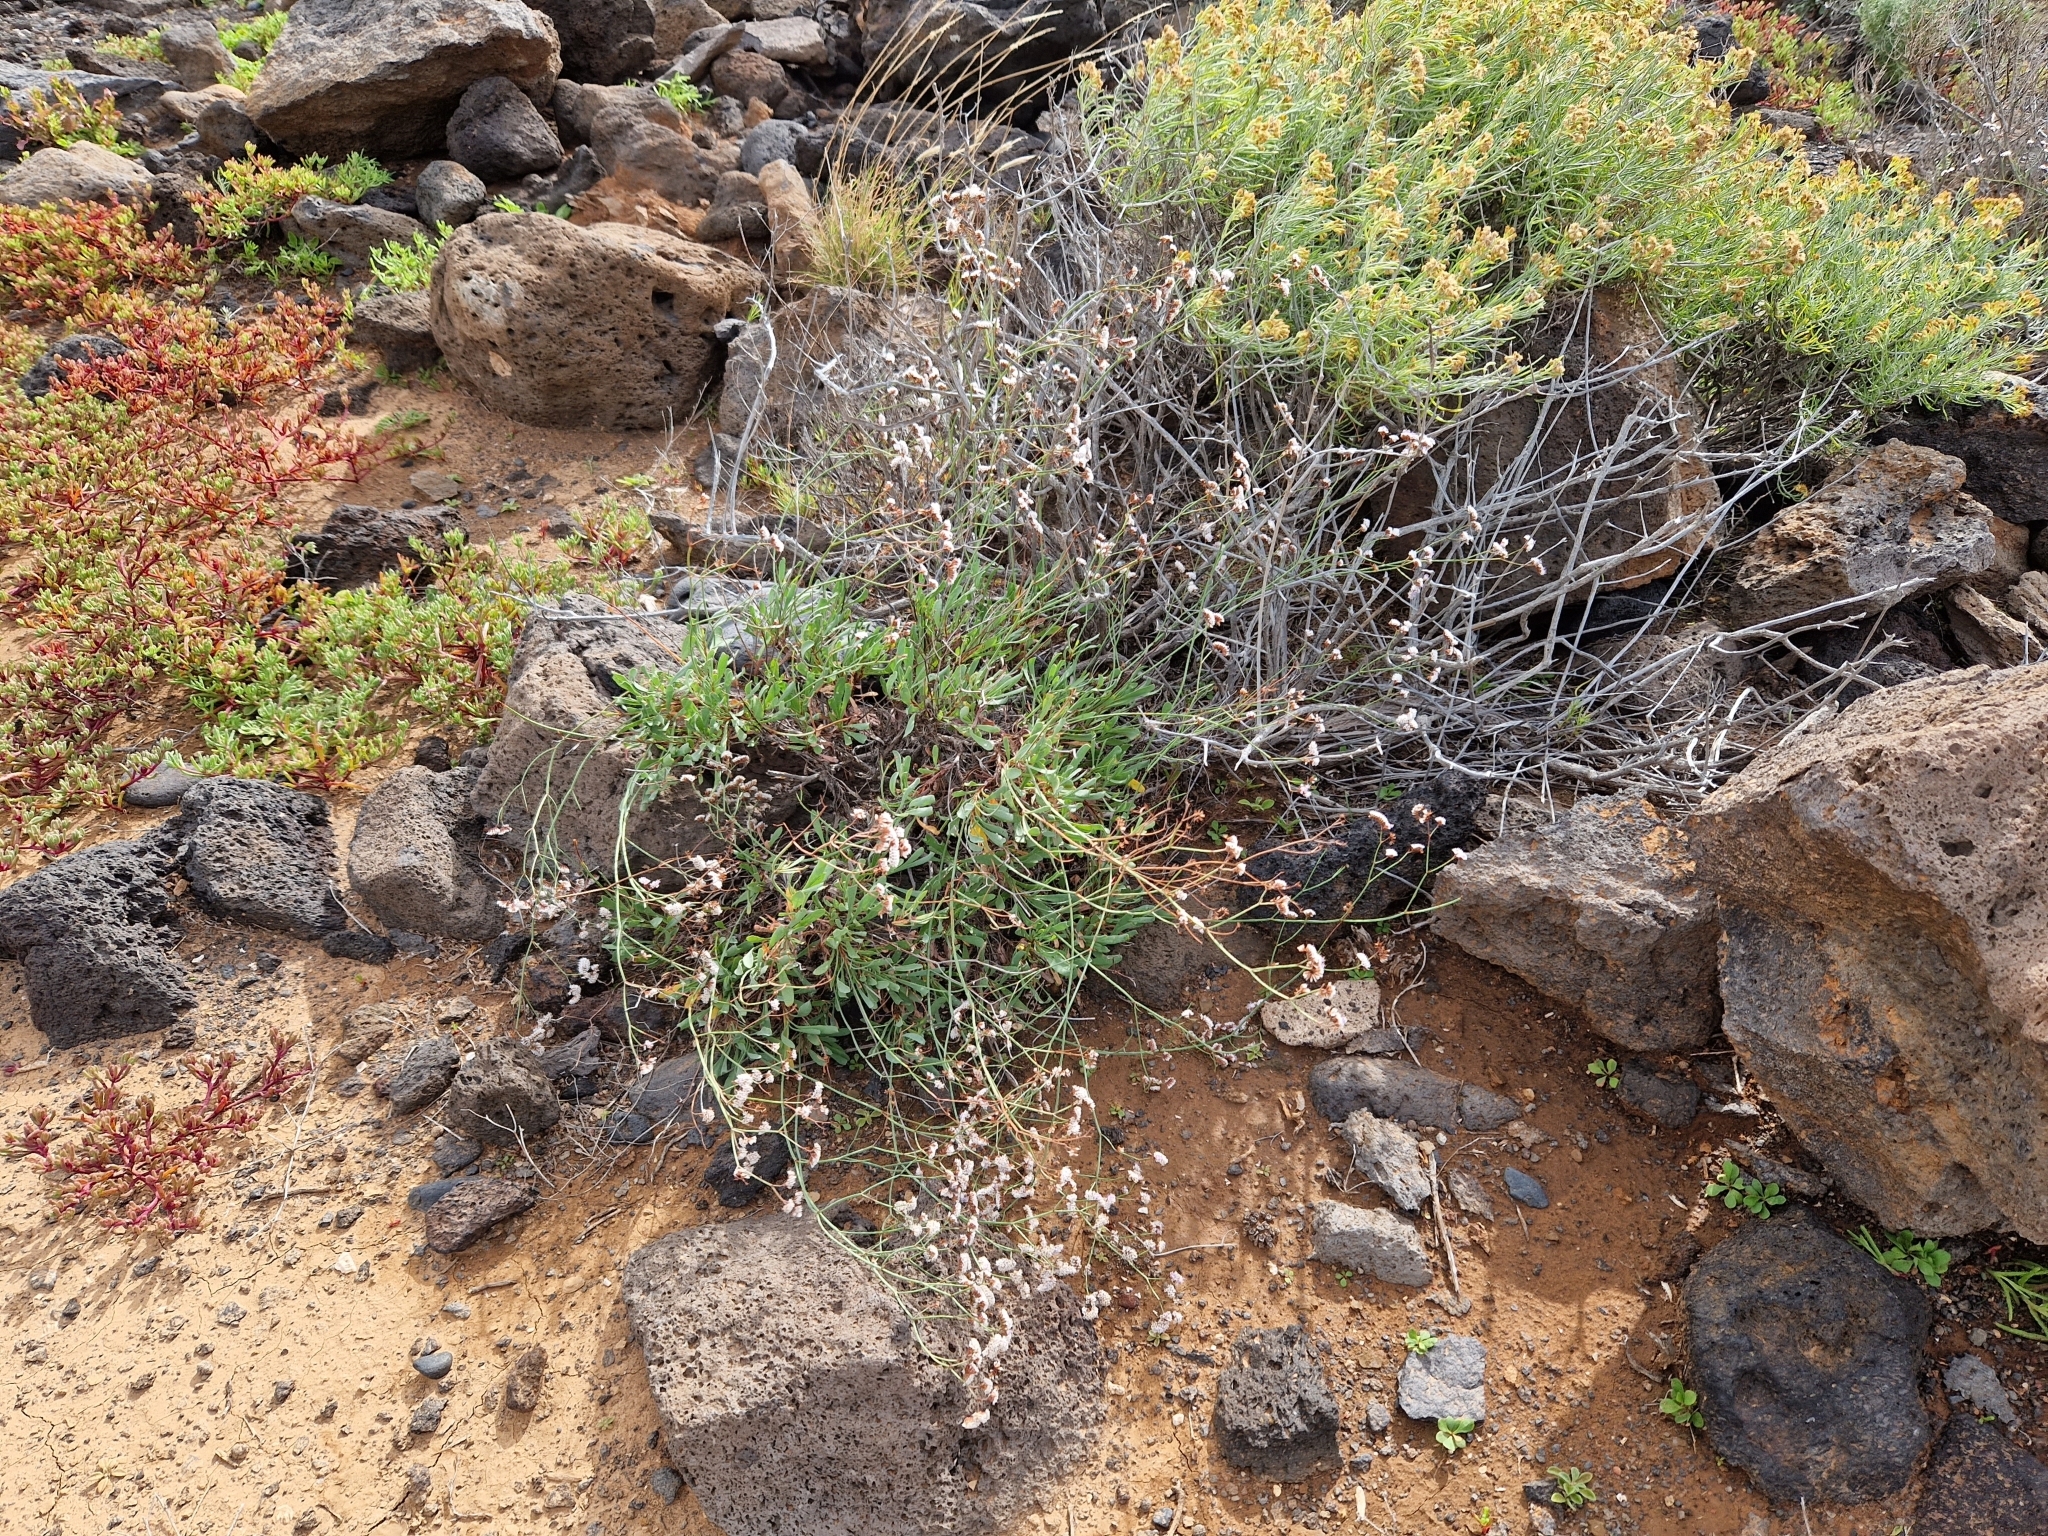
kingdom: Plantae
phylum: Tracheophyta
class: Magnoliopsida
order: Caryophyllales
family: Plumbaginaceae
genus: Limonium
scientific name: Limonium pectinatum
